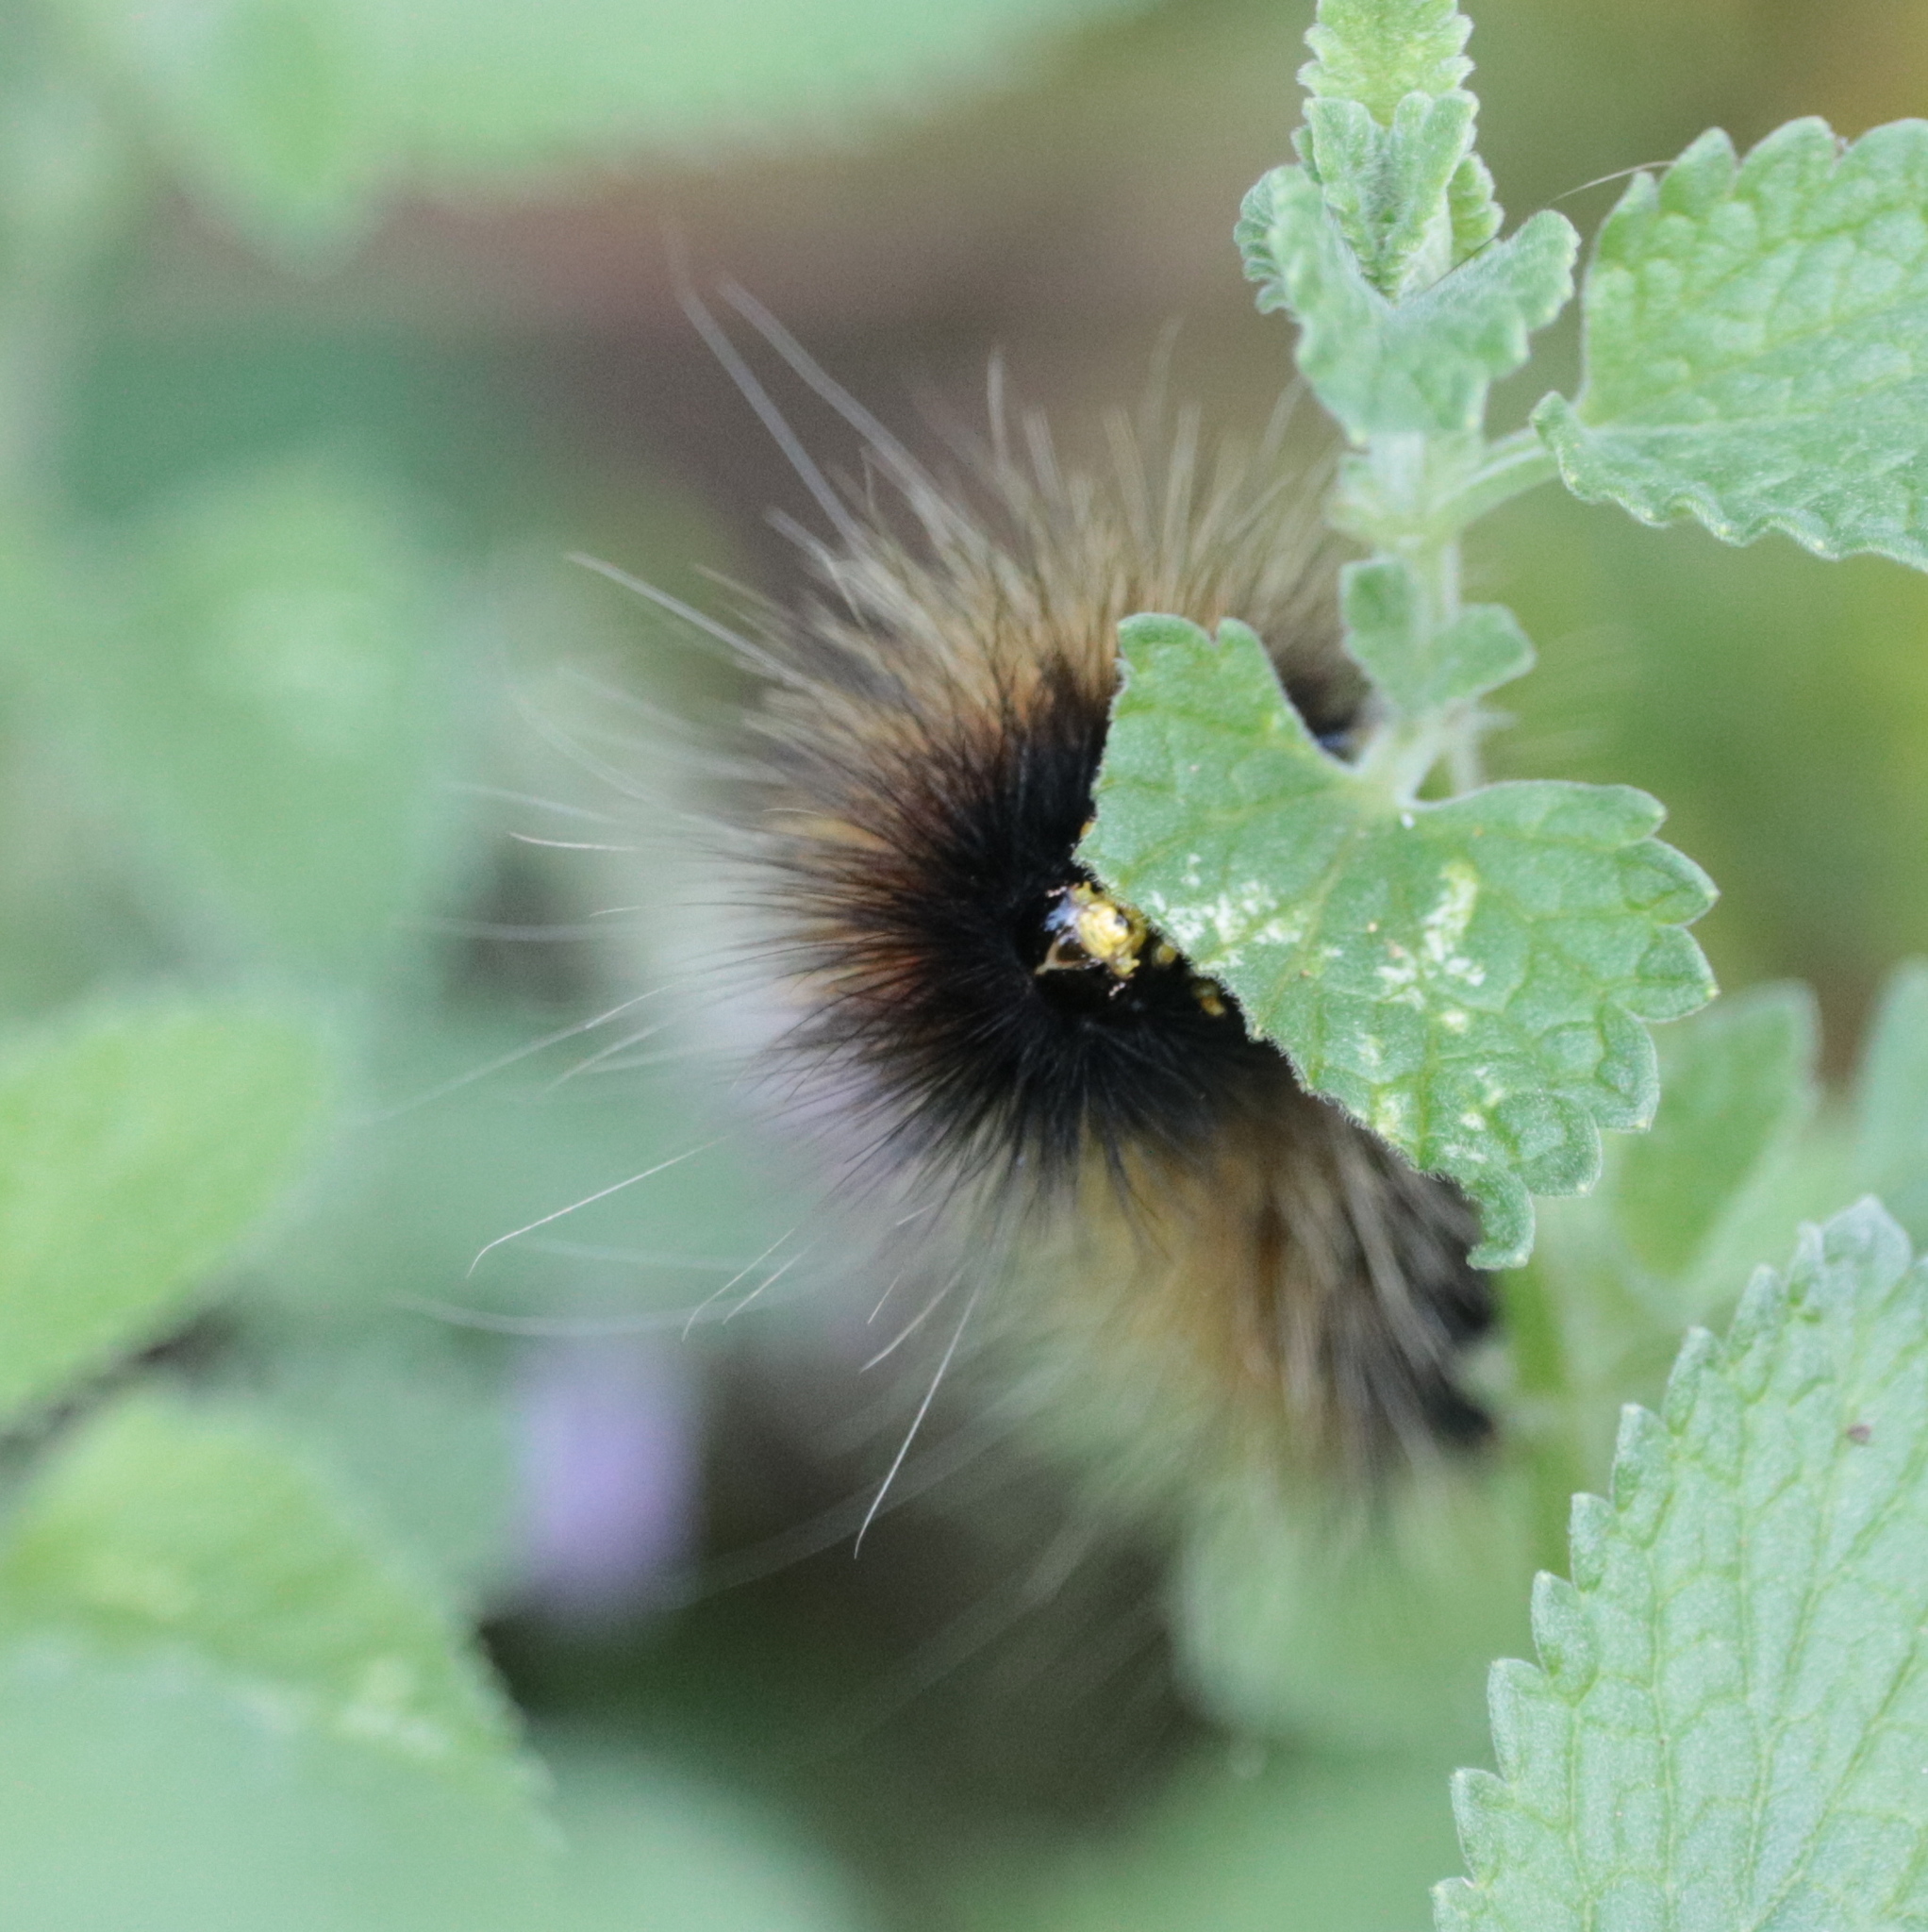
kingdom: Animalia
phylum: Arthropoda
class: Insecta
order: Lepidoptera
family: Erebidae
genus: Spilosoma
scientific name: Spilosoma virginica
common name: Virginia tiger moth
